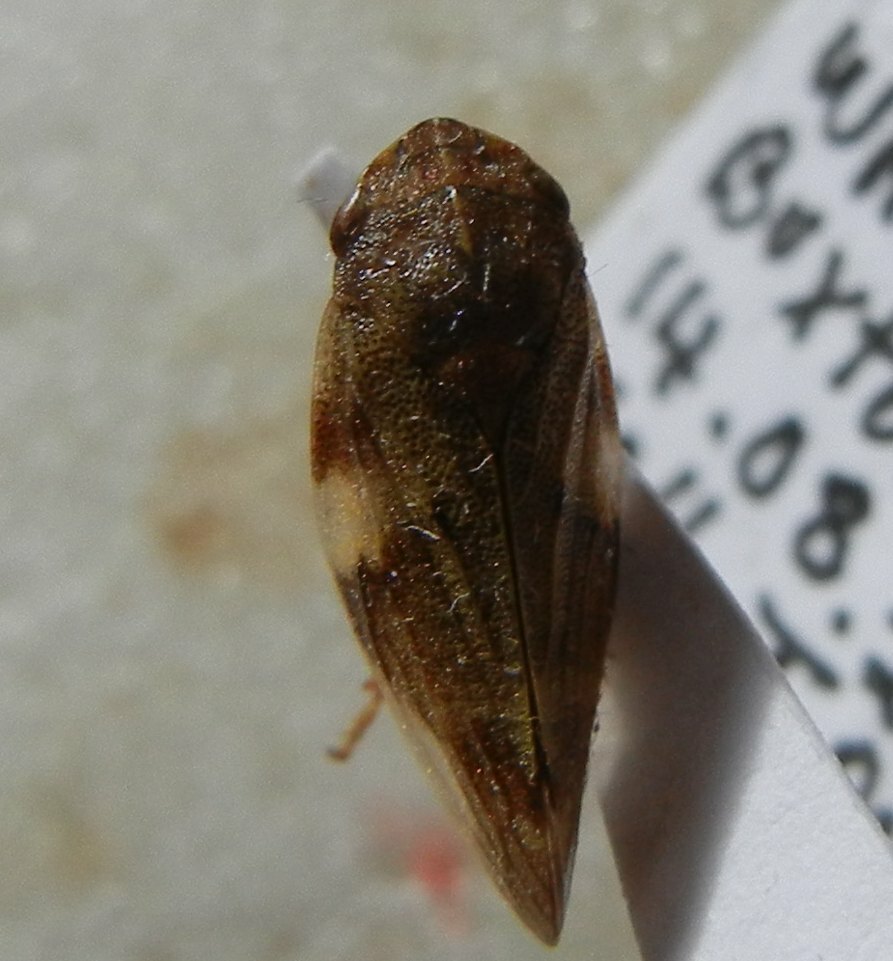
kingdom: Animalia
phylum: Arthropoda
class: Insecta
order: Hemiptera
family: Aphrophoridae
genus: Aphrophora
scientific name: Aphrophora alni
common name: European alder spittlebug
